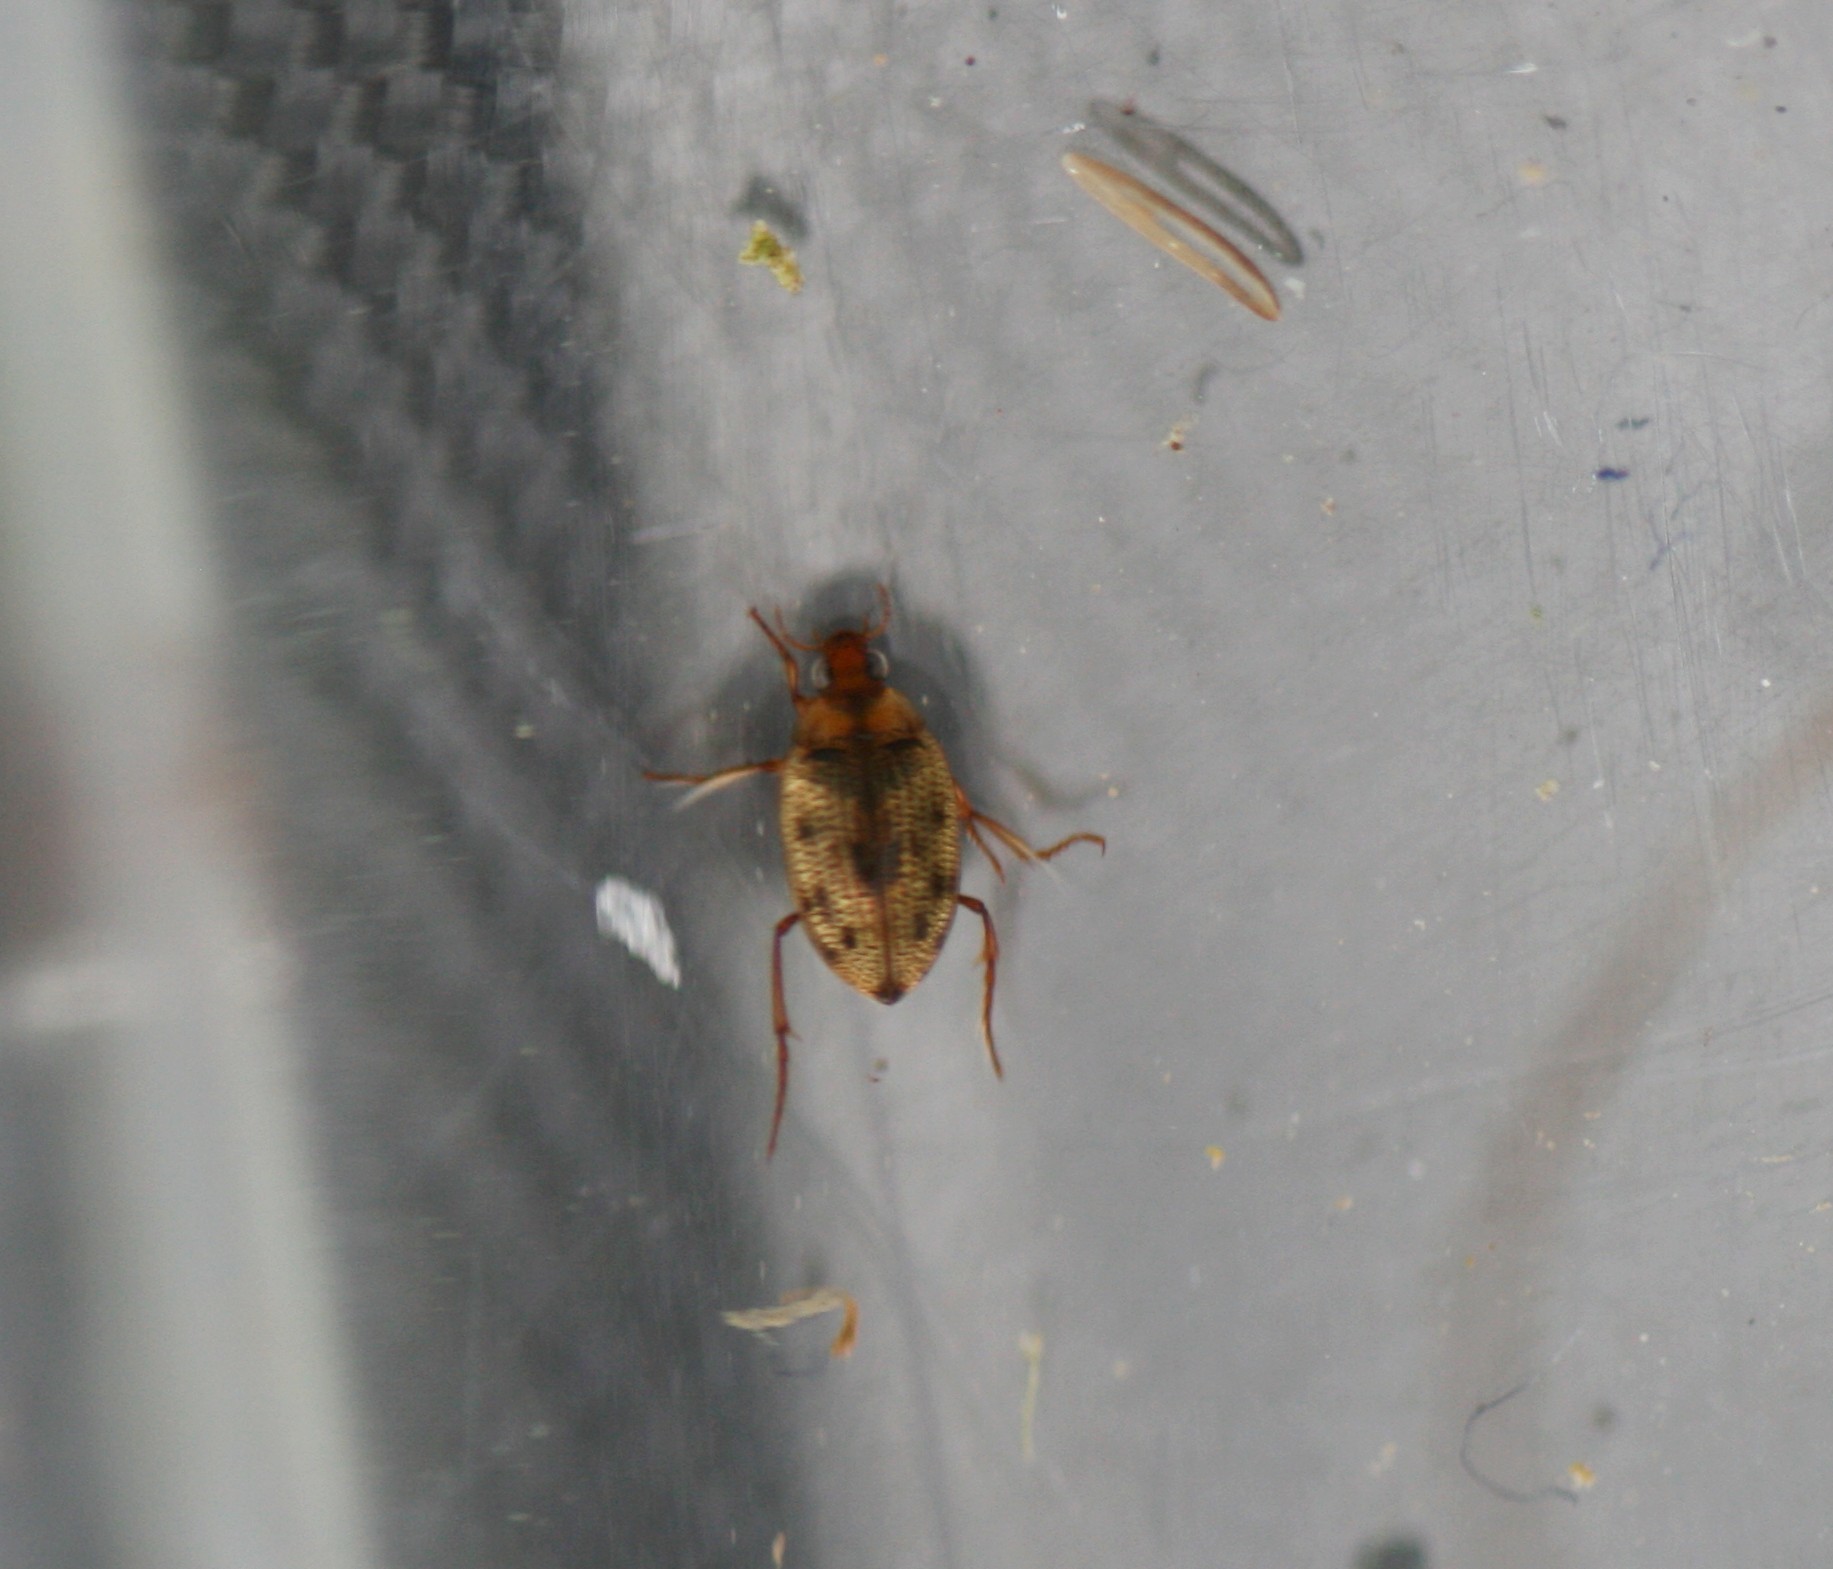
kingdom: Animalia
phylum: Arthropoda
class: Insecta
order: Coleoptera
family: Haliplidae
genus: Haliplus
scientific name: Haliplus lineatocollis
